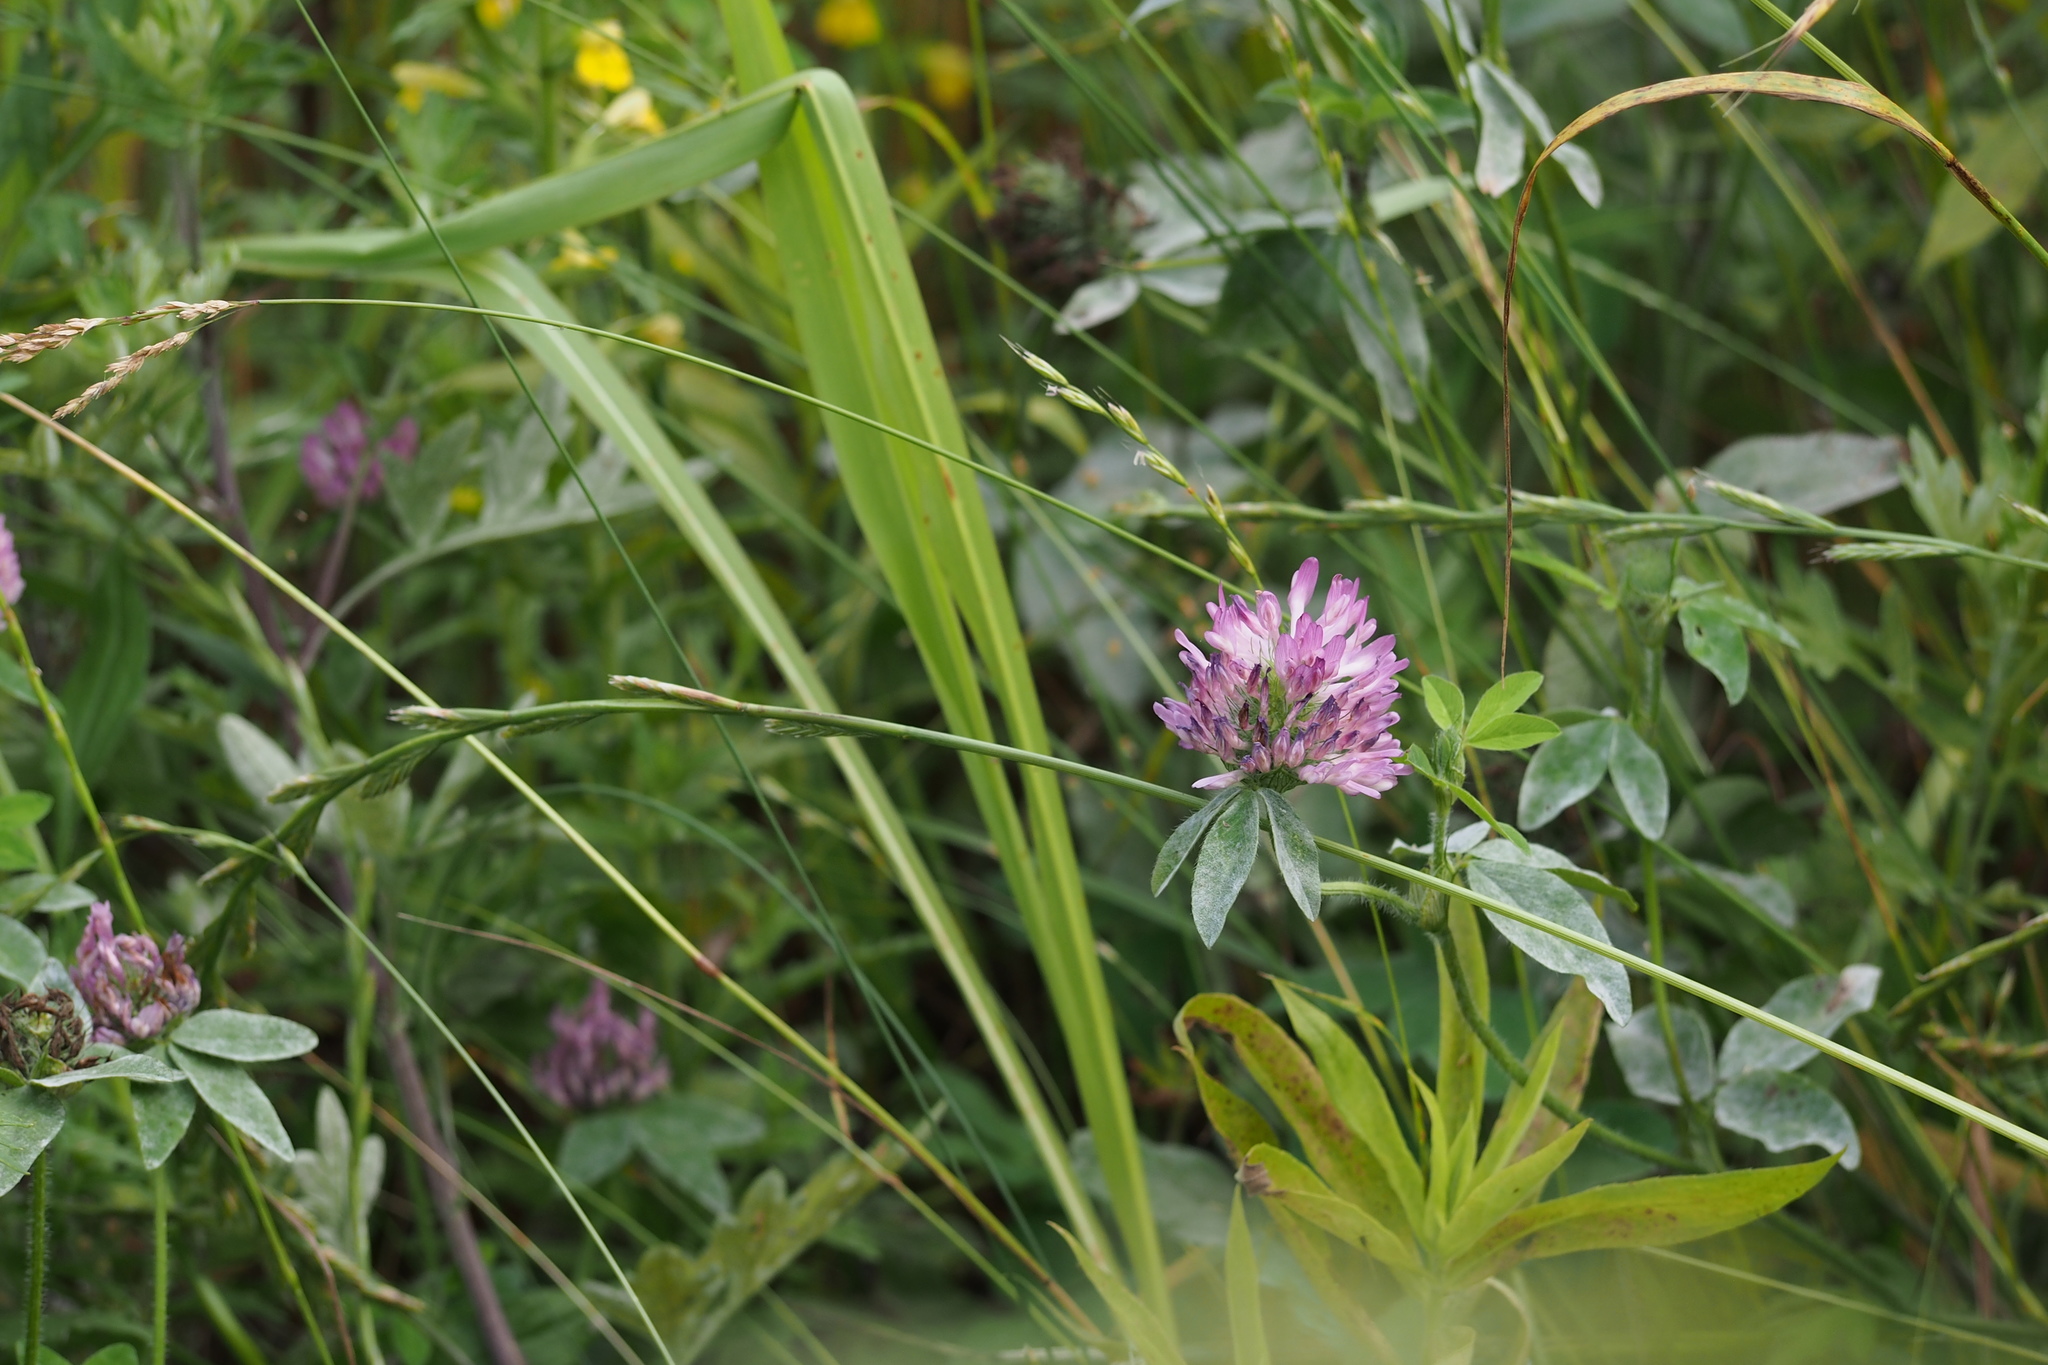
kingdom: Plantae
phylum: Tracheophyta
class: Magnoliopsida
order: Fabales
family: Fabaceae
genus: Trifolium
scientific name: Trifolium pratense
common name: Red clover
